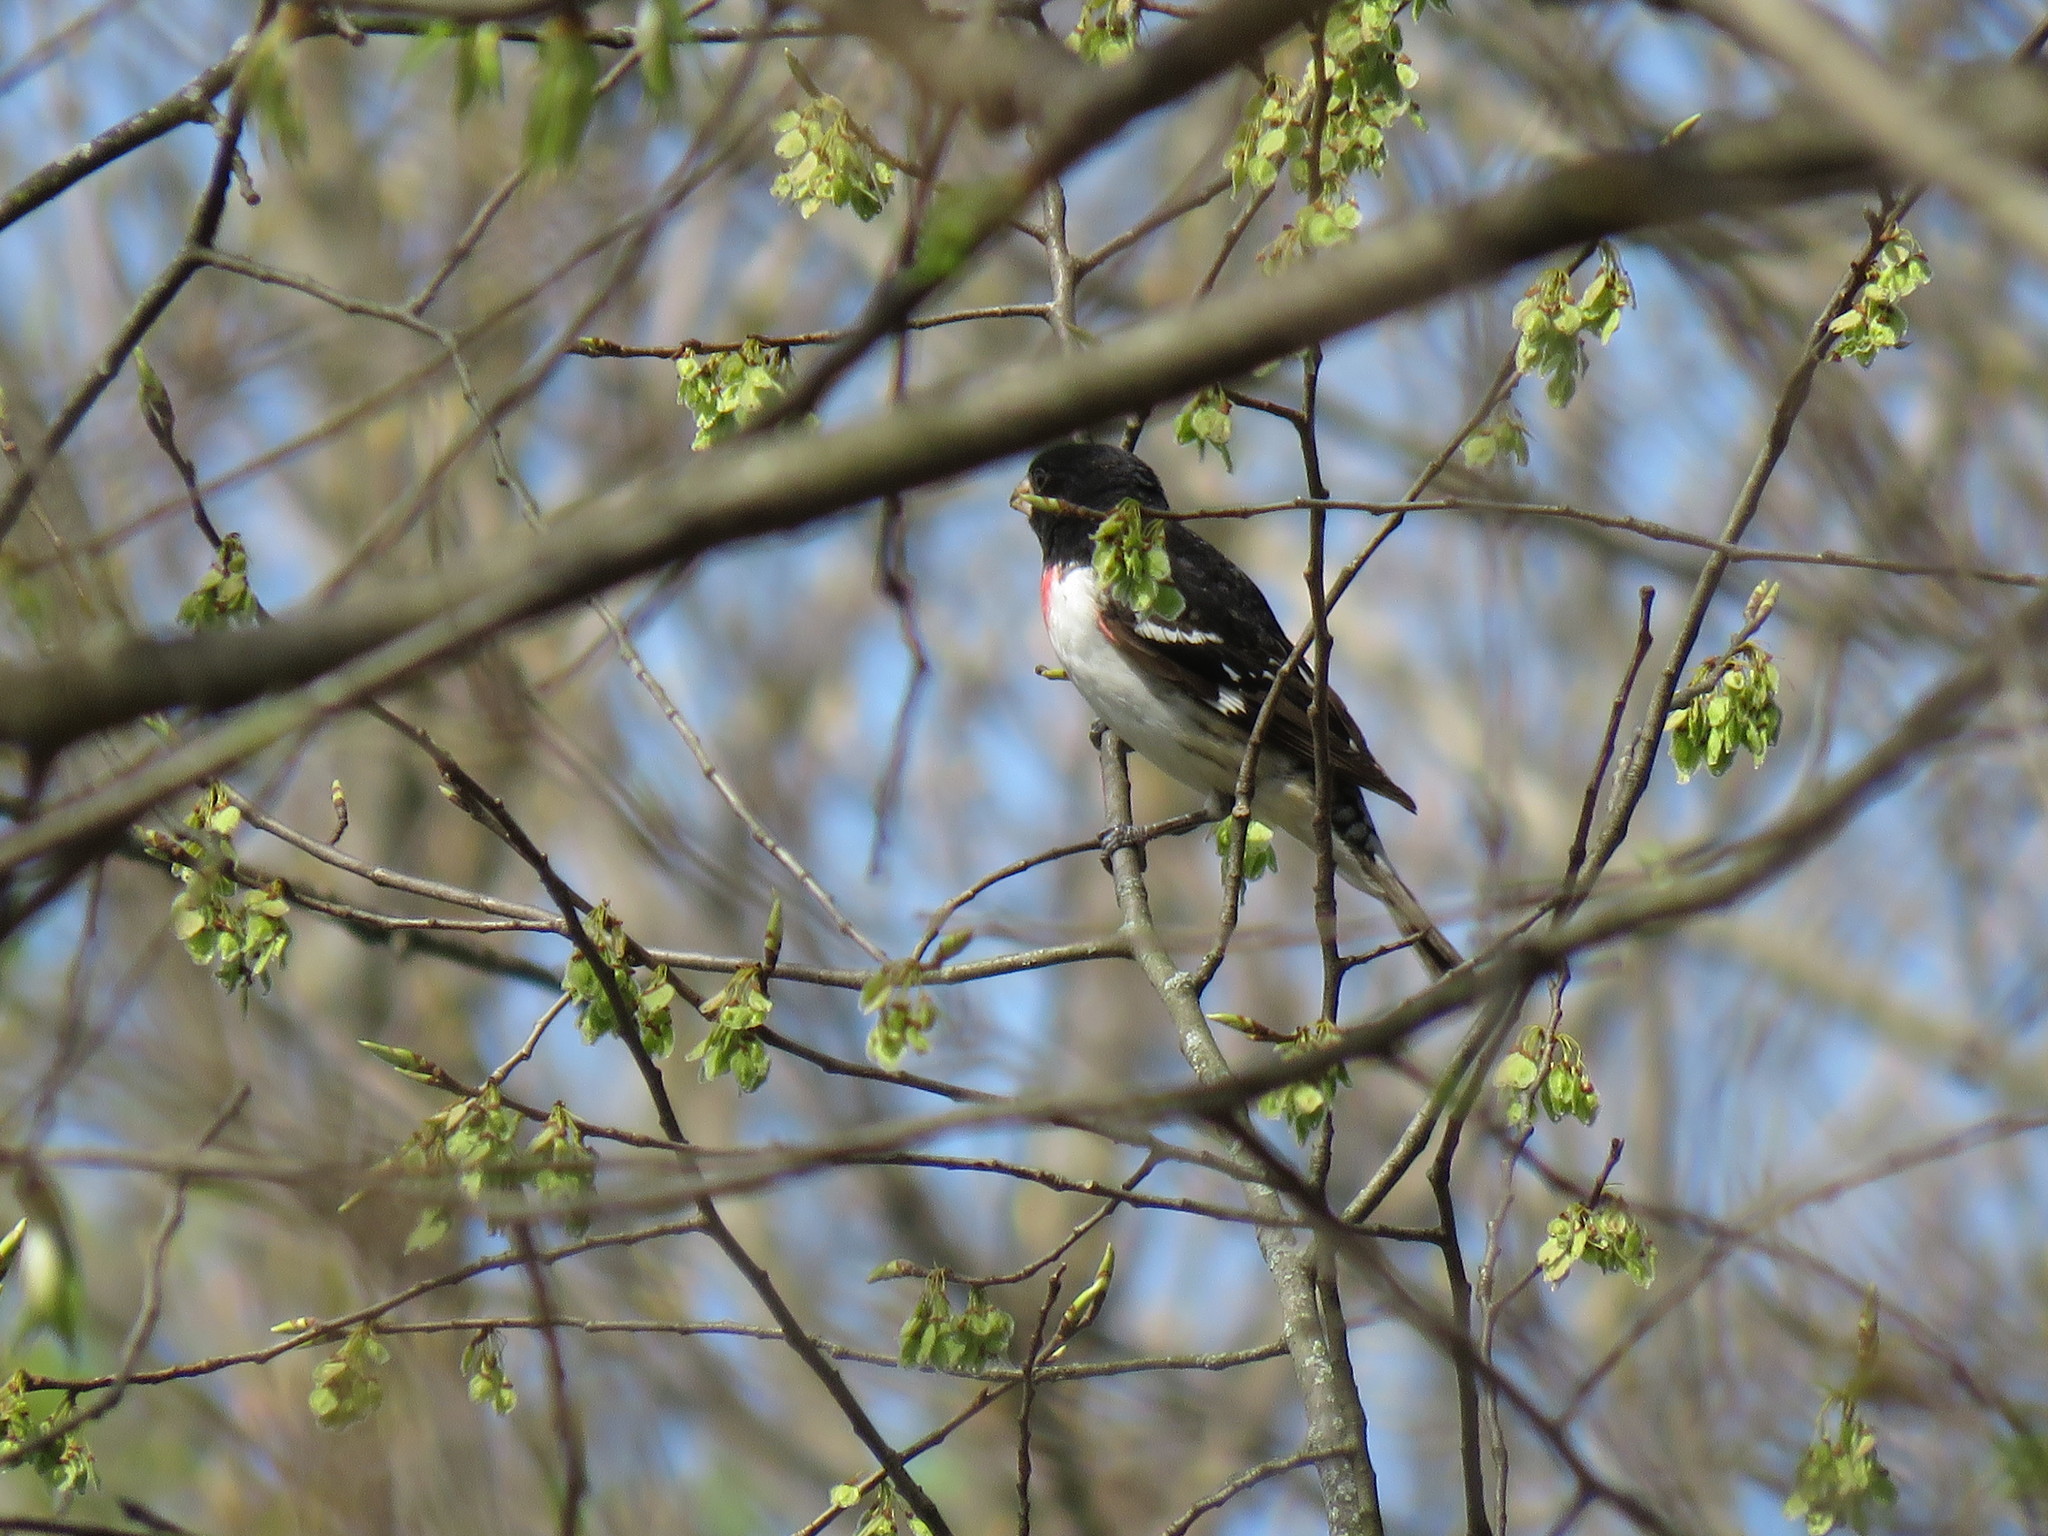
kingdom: Animalia
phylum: Chordata
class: Aves
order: Passeriformes
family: Cardinalidae
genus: Pheucticus
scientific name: Pheucticus ludovicianus
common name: Rose-breasted grosbeak
